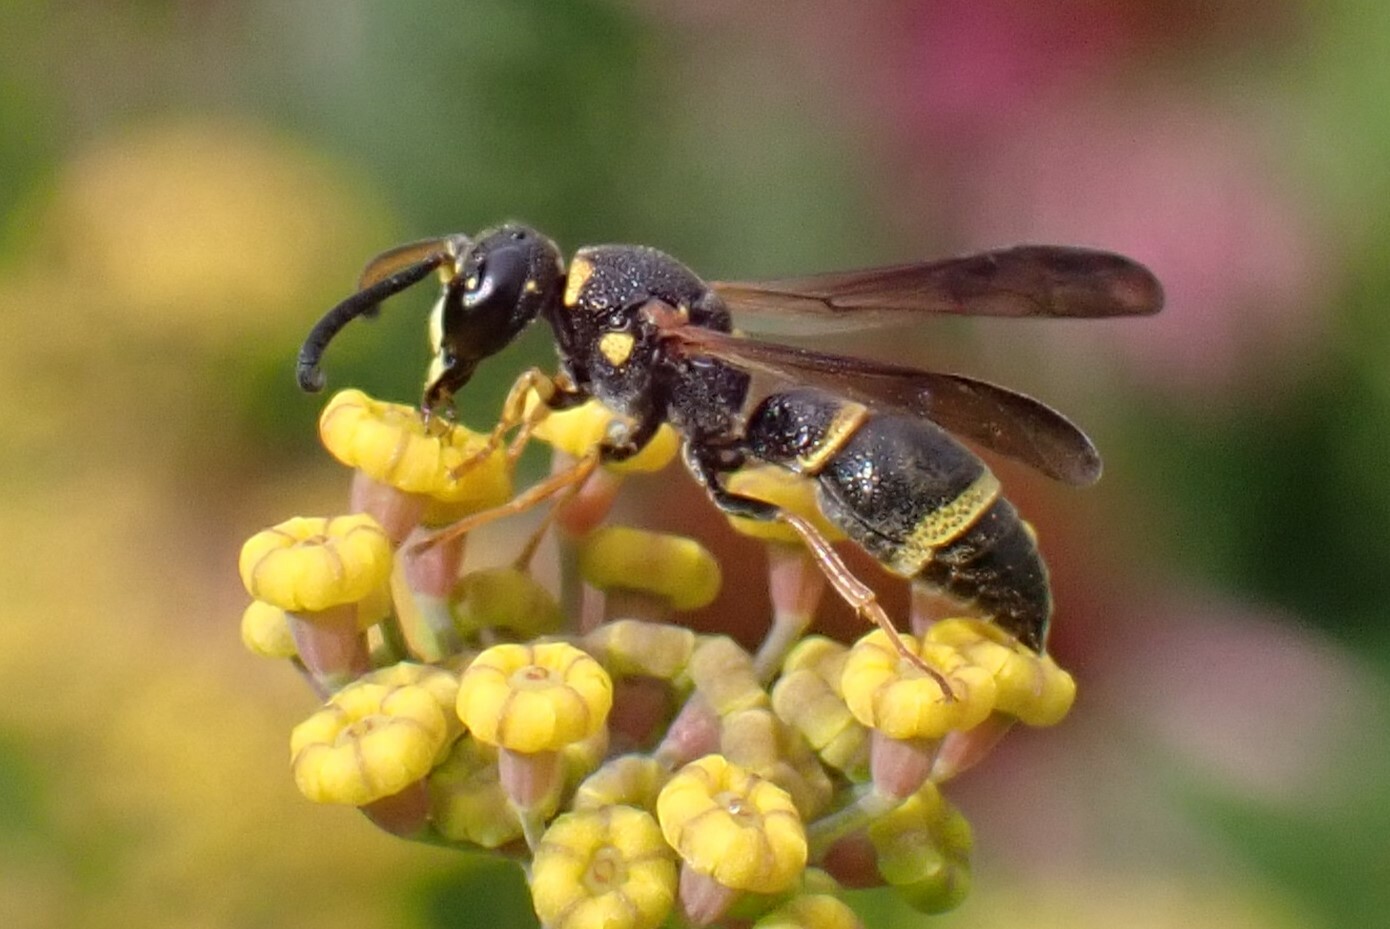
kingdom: Animalia
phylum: Arthropoda
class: Insecta
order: Hymenoptera
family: Eumenidae
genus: Parancistrocerus
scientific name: Parancistrocerus perennis
